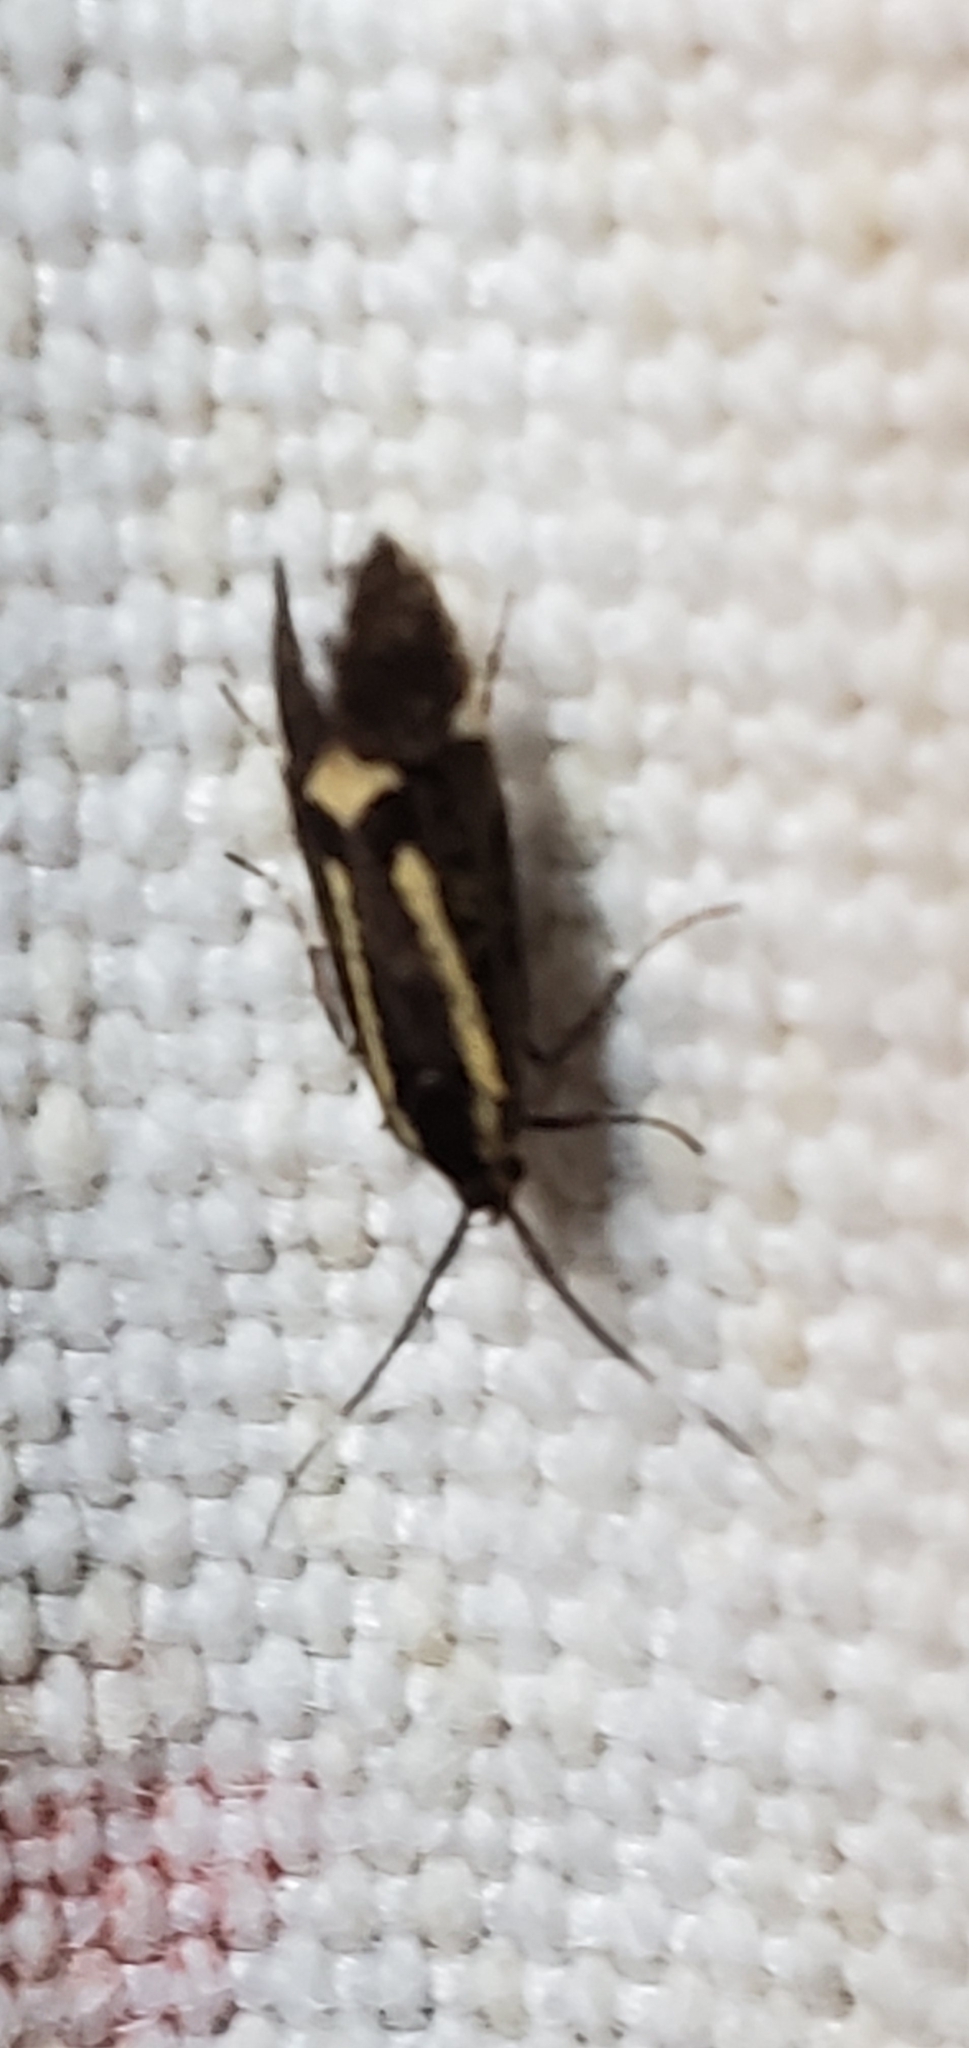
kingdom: Animalia
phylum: Arthropoda
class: Insecta
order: Lepidoptera
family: Oecophoridae
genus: Dafa
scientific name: Dafa Esperia sulphurella
